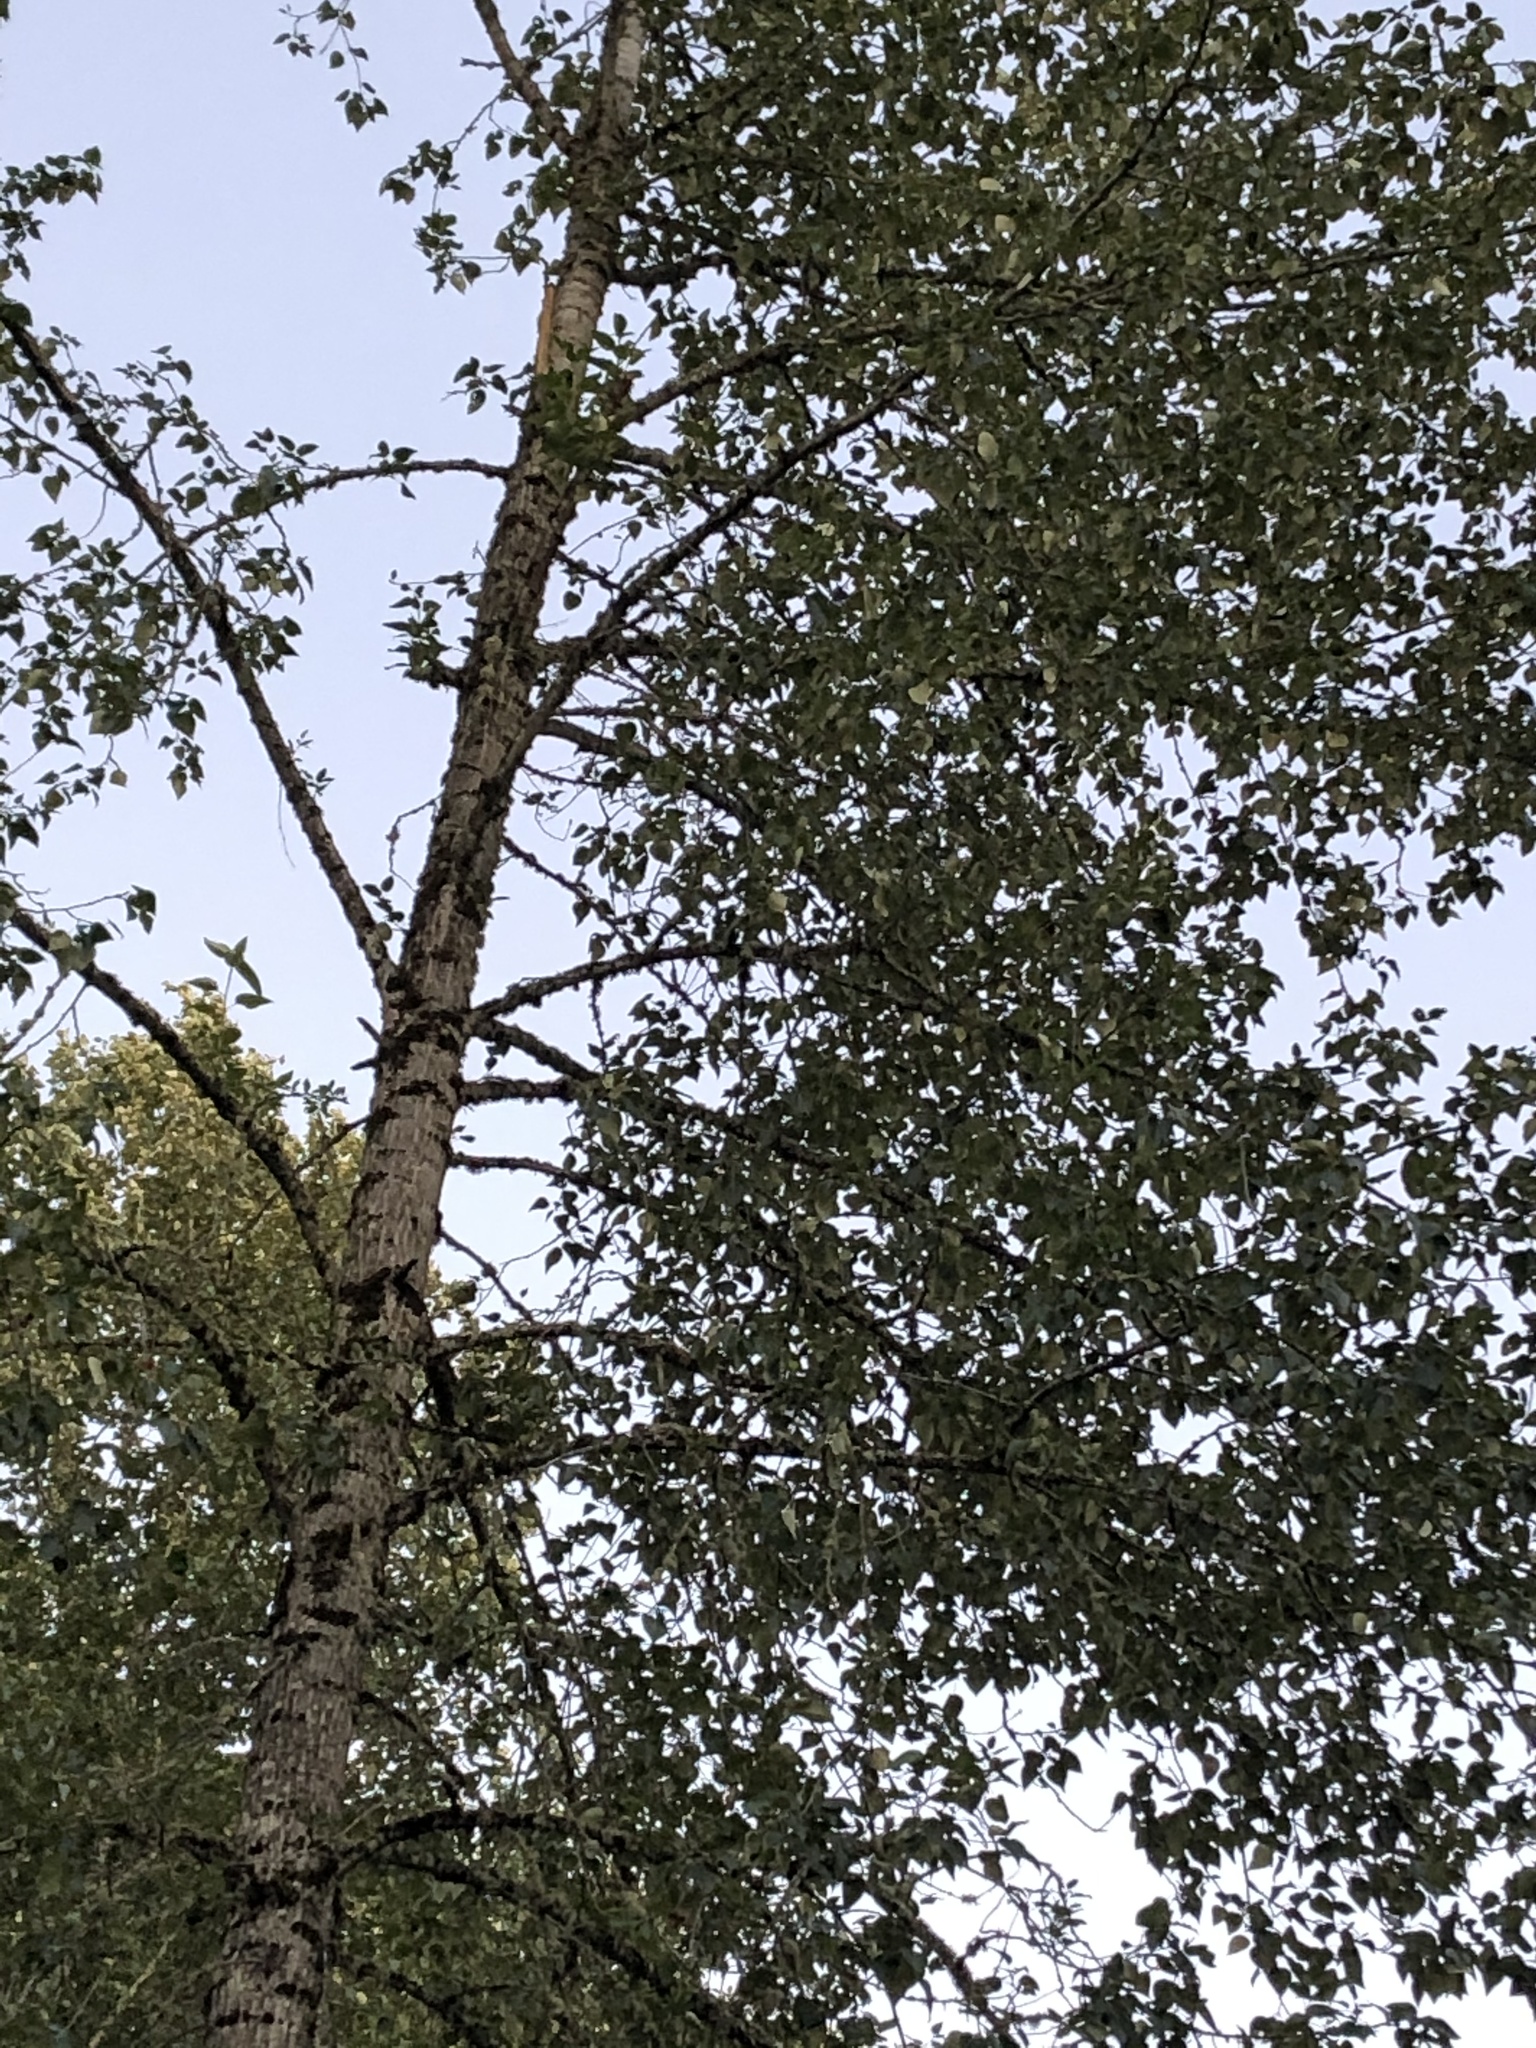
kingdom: Plantae
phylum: Tracheophyta
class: Magnoliopsida
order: Malpighiales
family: Salicaceae
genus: Populus
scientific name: Populus tremuloides
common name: Quaking aspen
